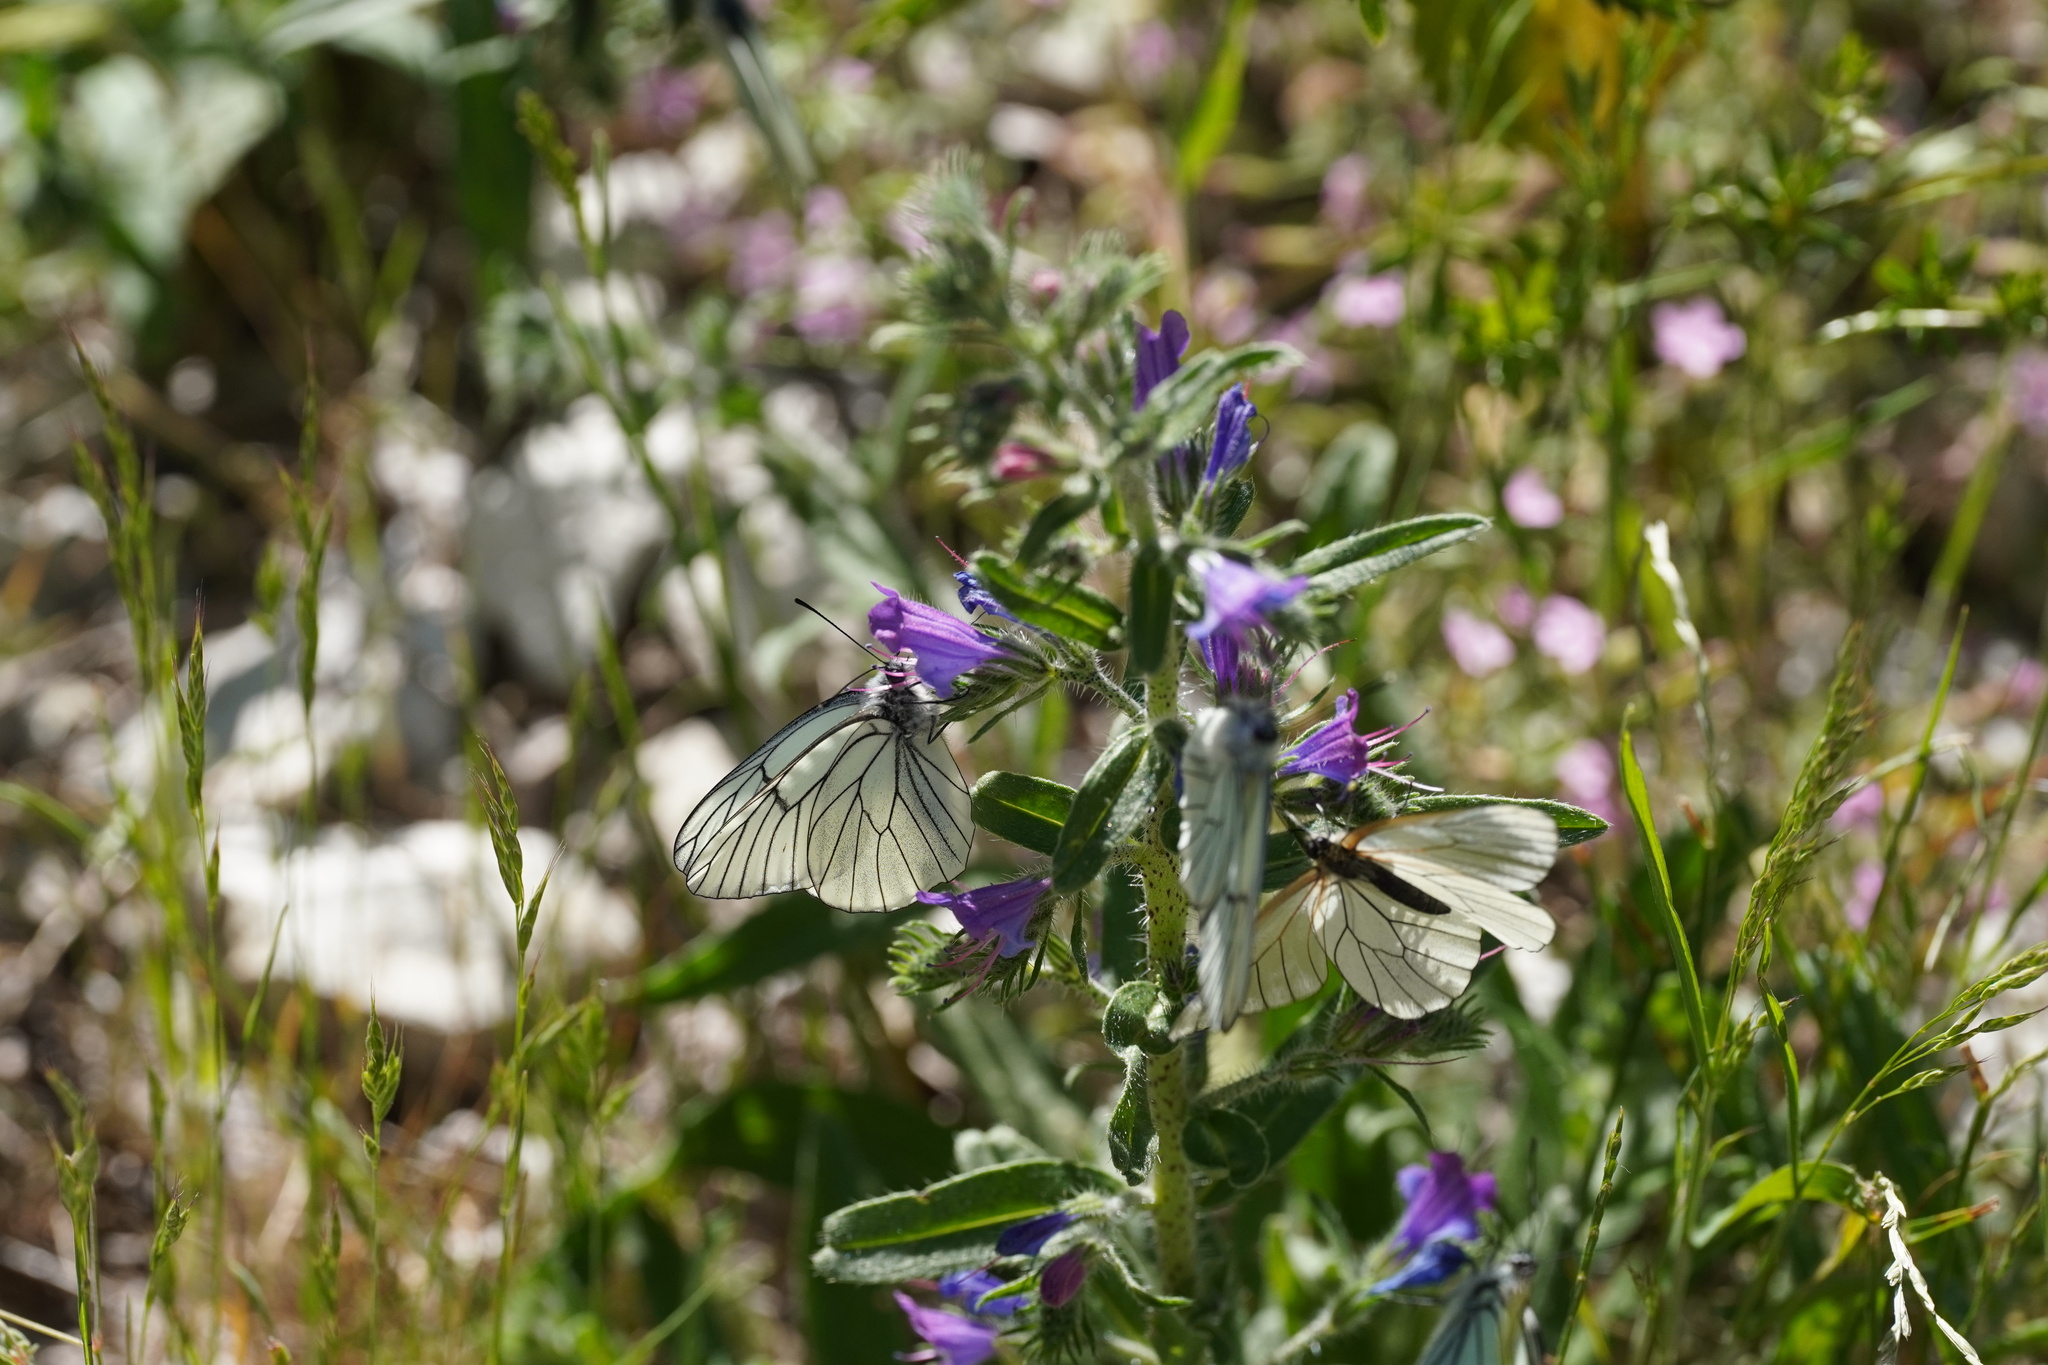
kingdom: Animalia
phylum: Arthropoda
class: Insecta
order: Lepidoptera
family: Pieridae
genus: Aporia
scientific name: Aporia crataegi
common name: Black-veined white
